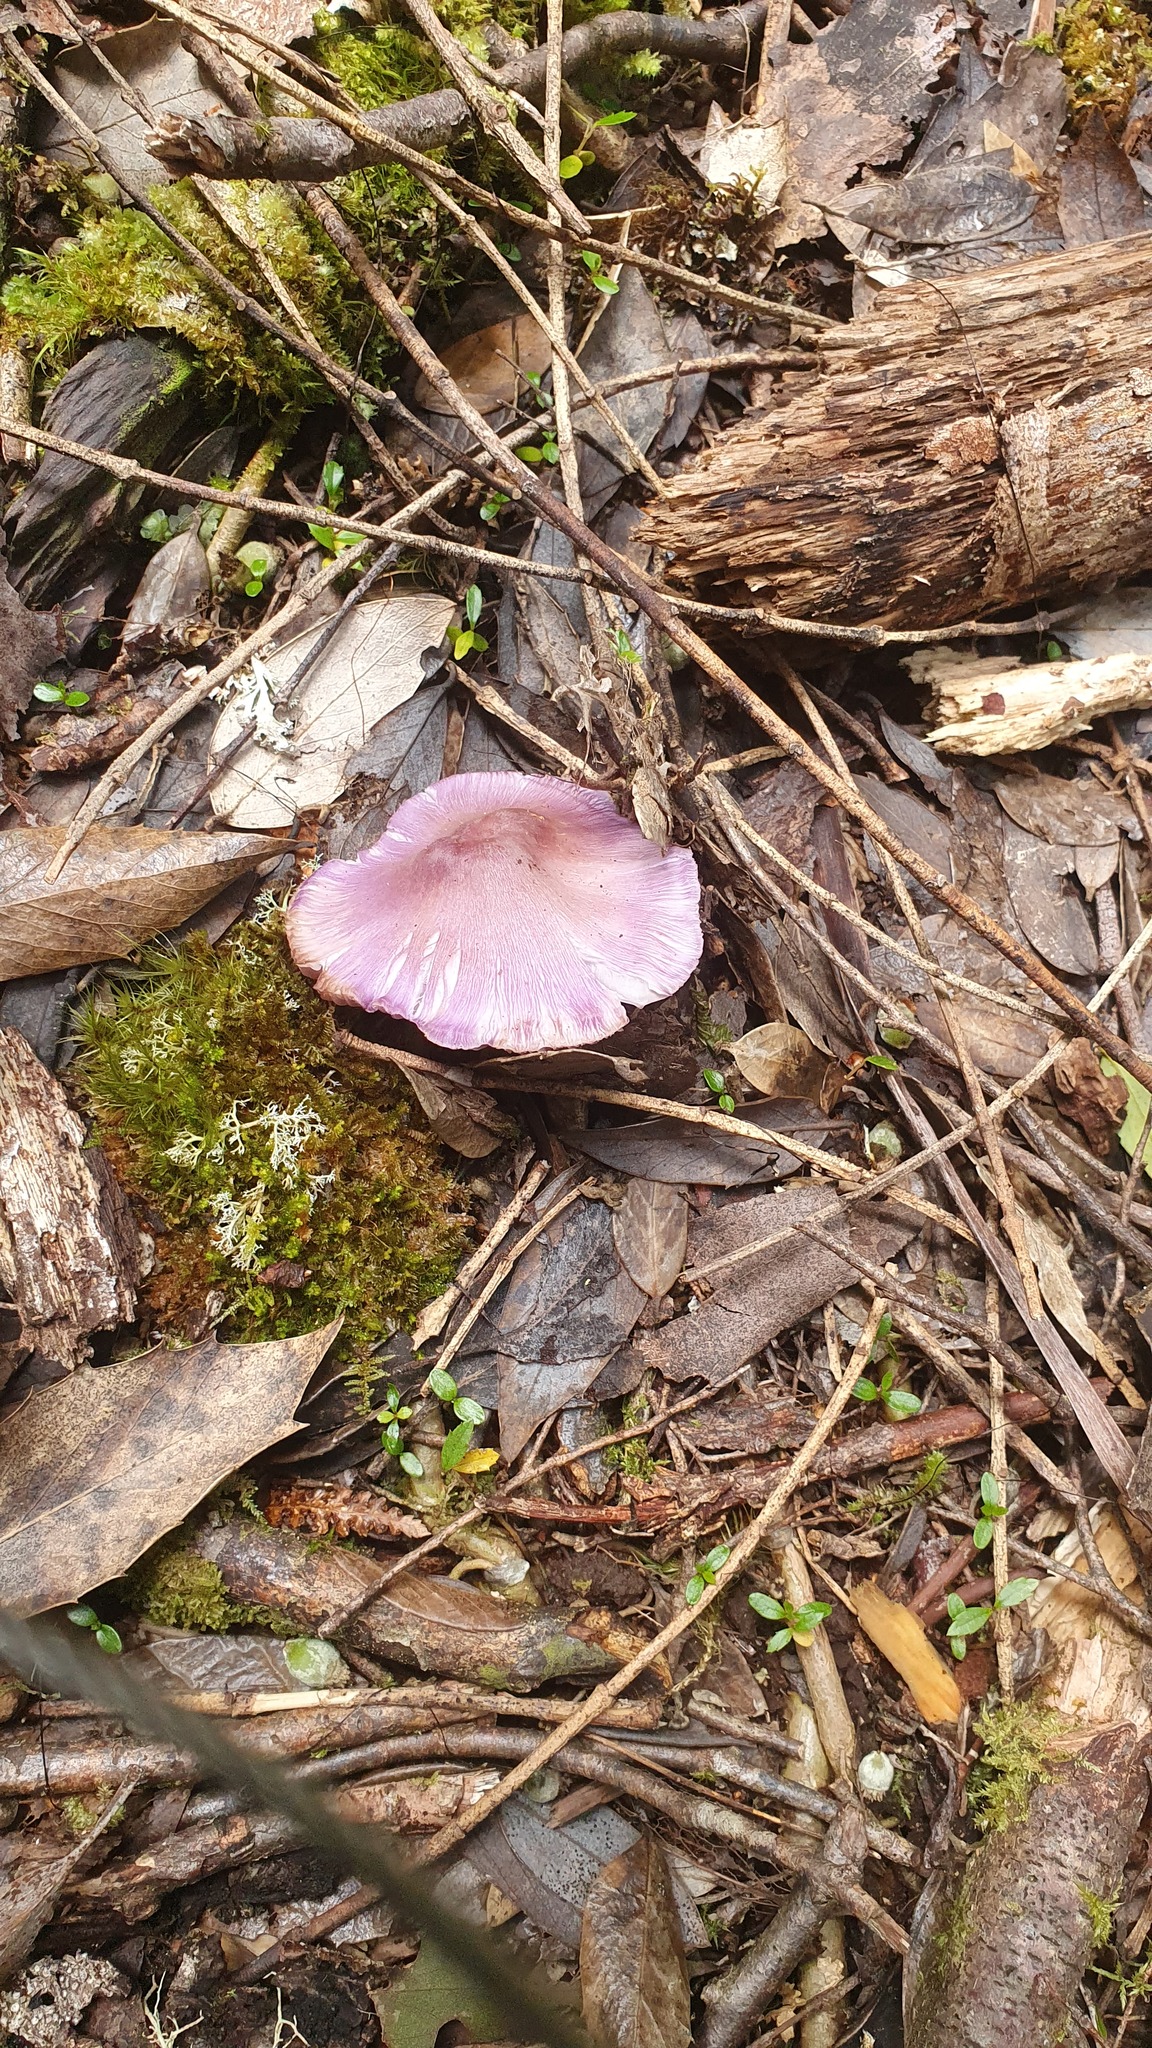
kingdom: Fungi
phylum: Basidiomycota
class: Agaricomycetes
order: Agaricales
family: Hygrophoraceae
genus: Porpolomopsis
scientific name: Porpolomopsis lewelliniae
